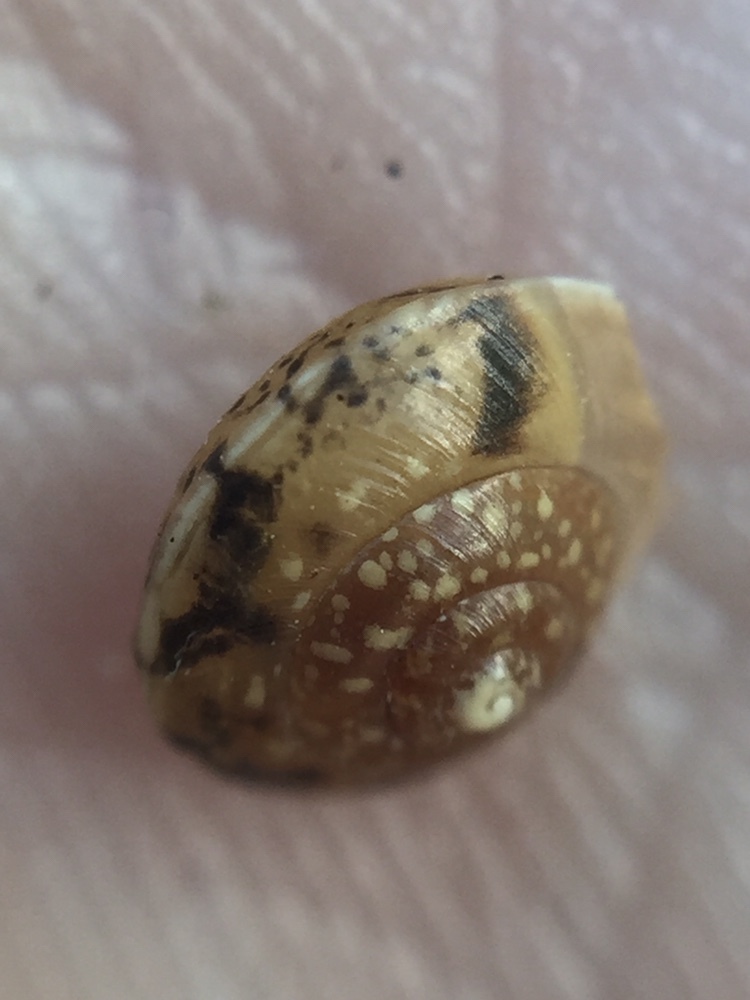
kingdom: Animalia
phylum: Mollusca
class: Gastropoda
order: Stylommatophora
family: Hygromiidae
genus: Hygromia
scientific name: Hygromia cinctella
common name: Girdled snail
